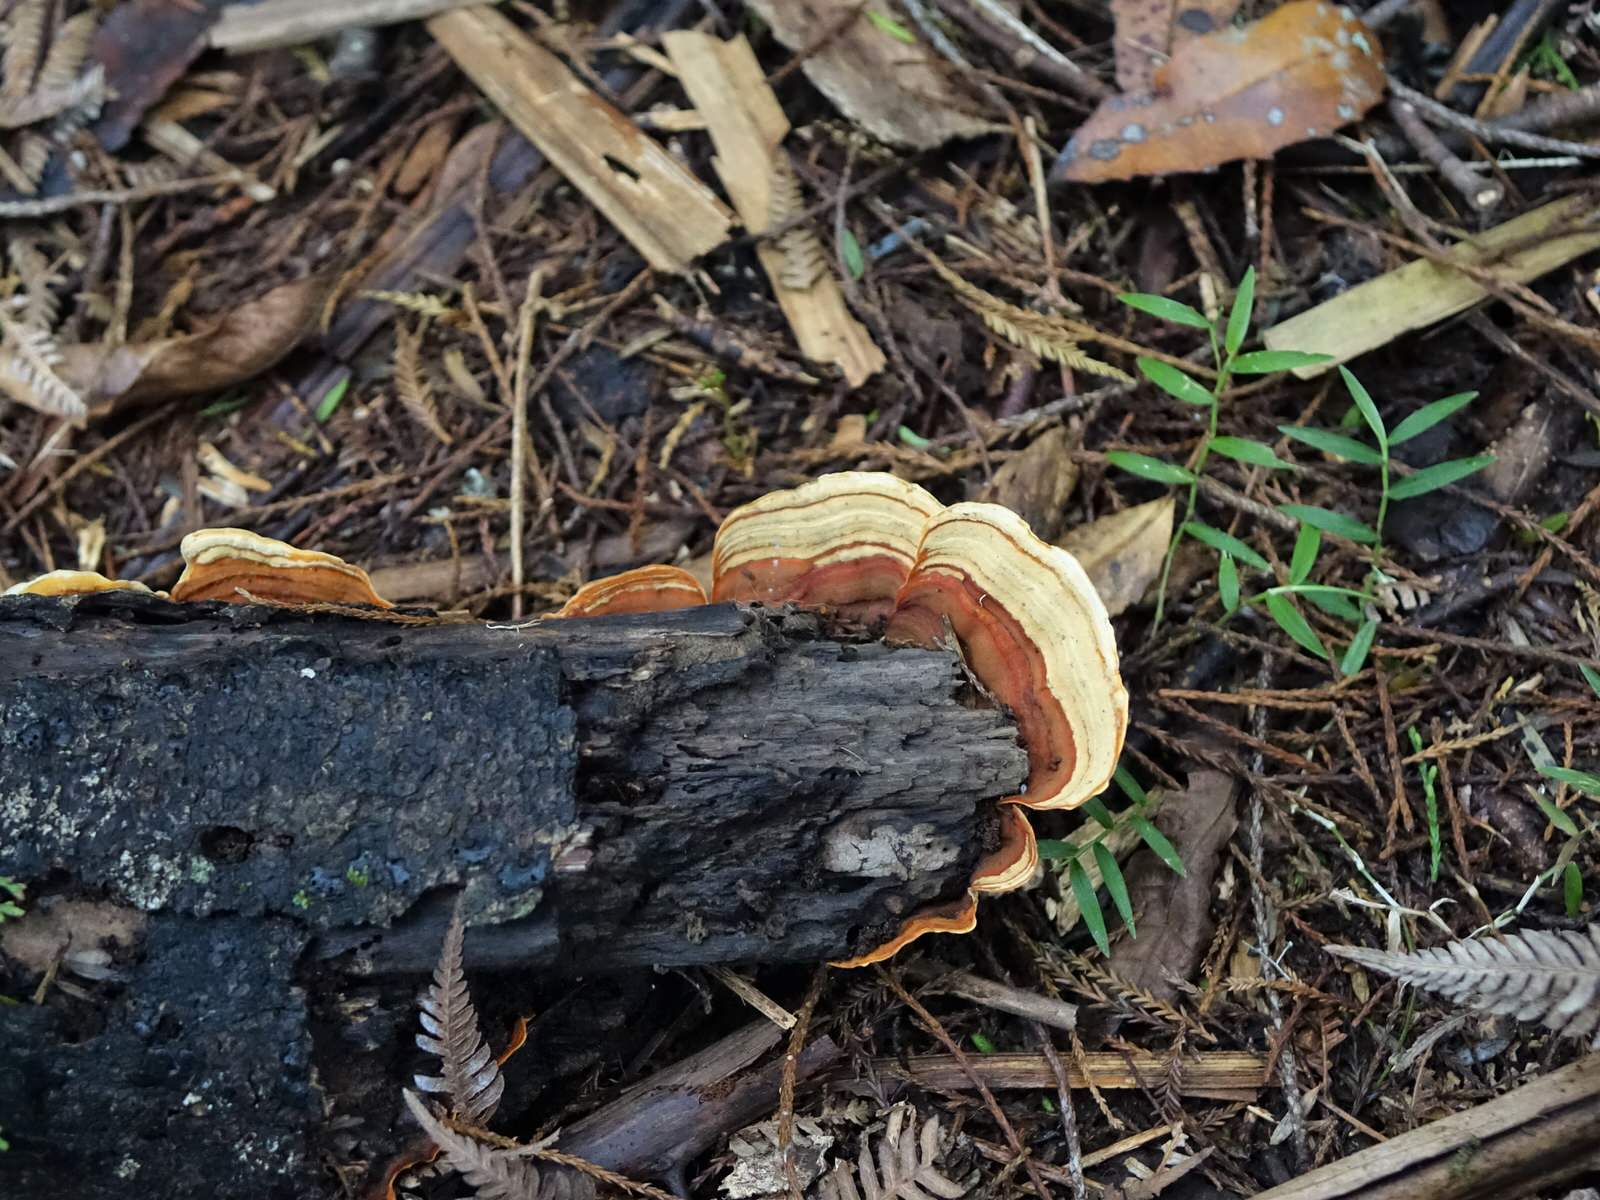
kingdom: Fungi
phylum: Basidiomycota
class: Agaricomycetes
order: Russulales
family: Stereaceae
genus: Stereum
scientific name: Stereum versicolor
